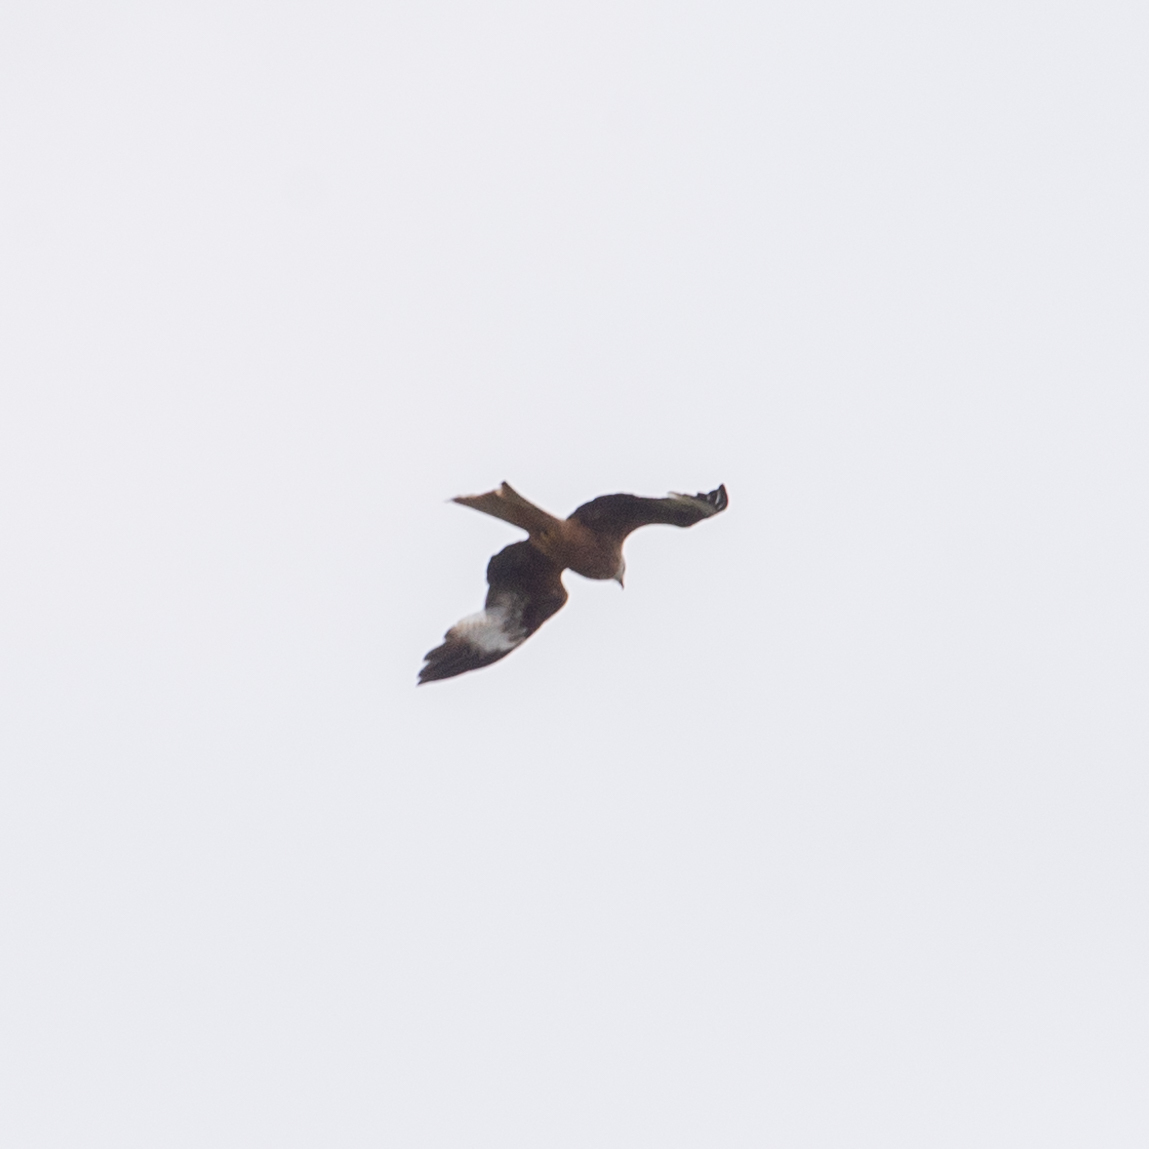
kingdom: Animalia
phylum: Chordata
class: Aves
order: Accipitriformes
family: Accipitridae
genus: Milvus
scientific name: Milvus milvus
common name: Red kite
